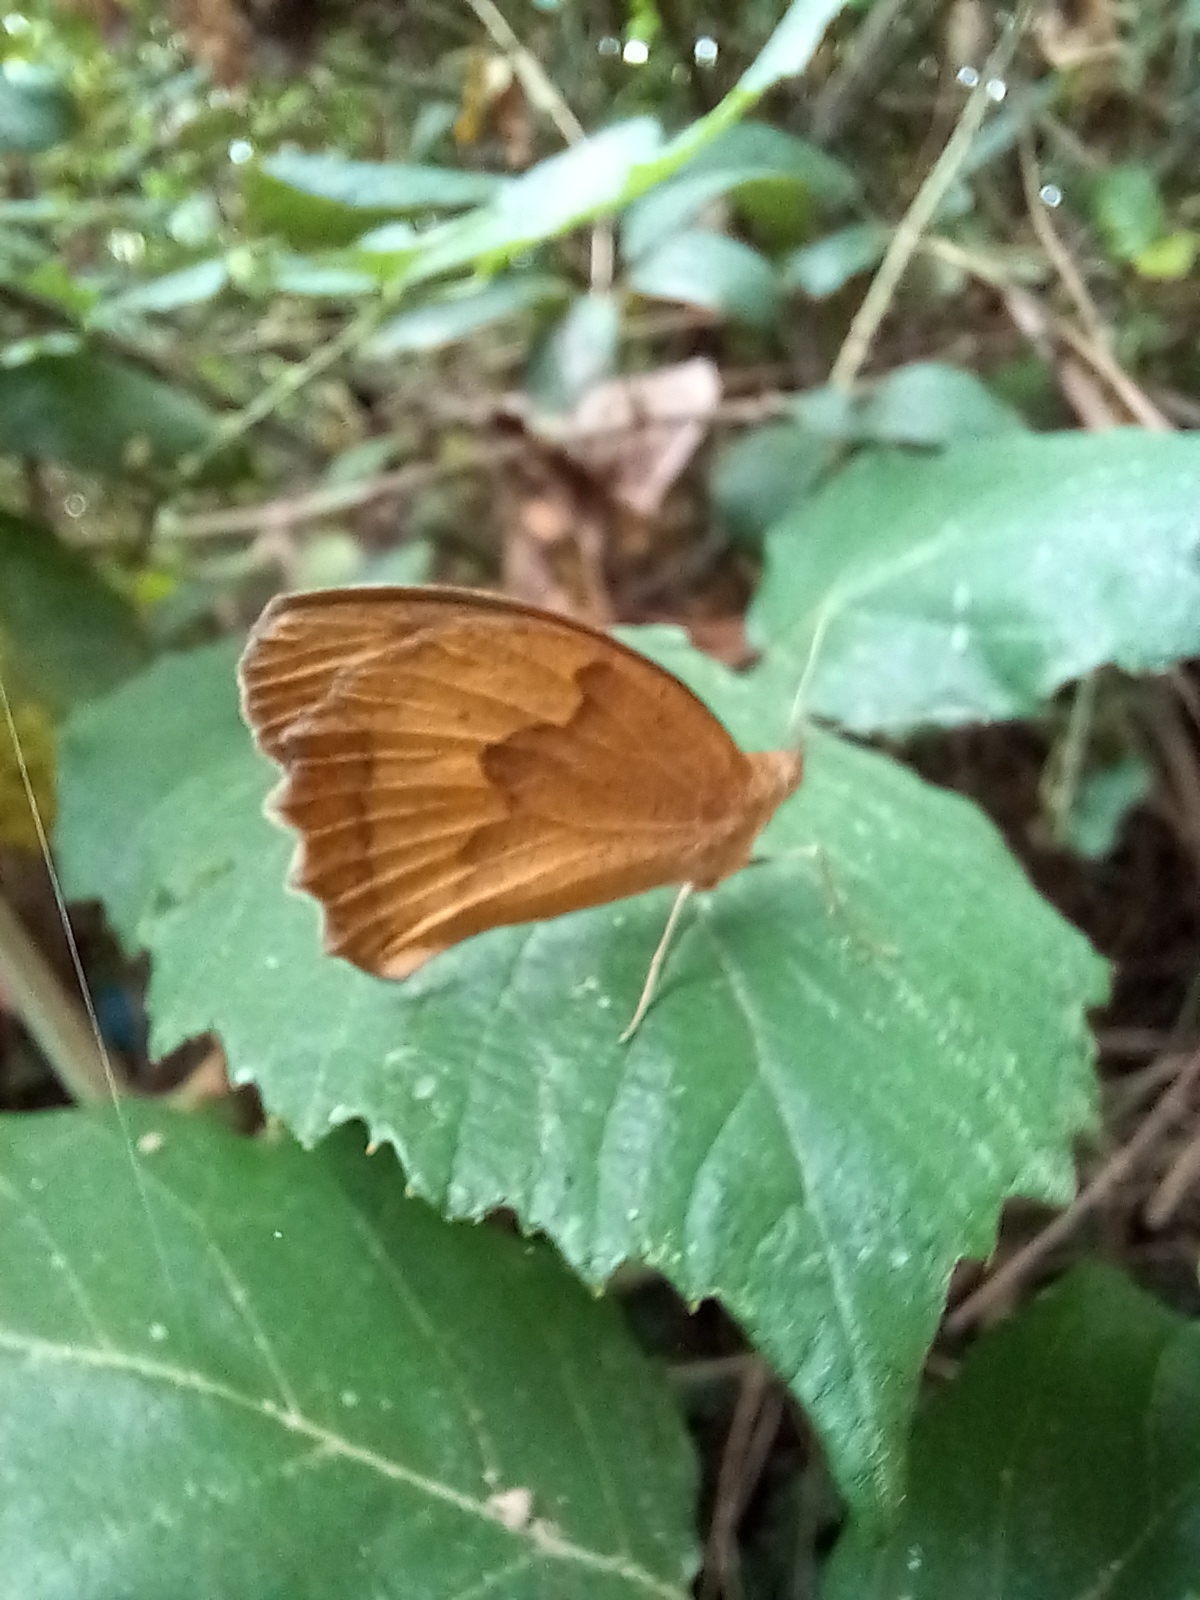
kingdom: Animalia
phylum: Arthropoda
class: Insecta
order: Lepidoptera
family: Nymphalidae
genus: Maniola
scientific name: Maniola jurtina
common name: Meadow brown
